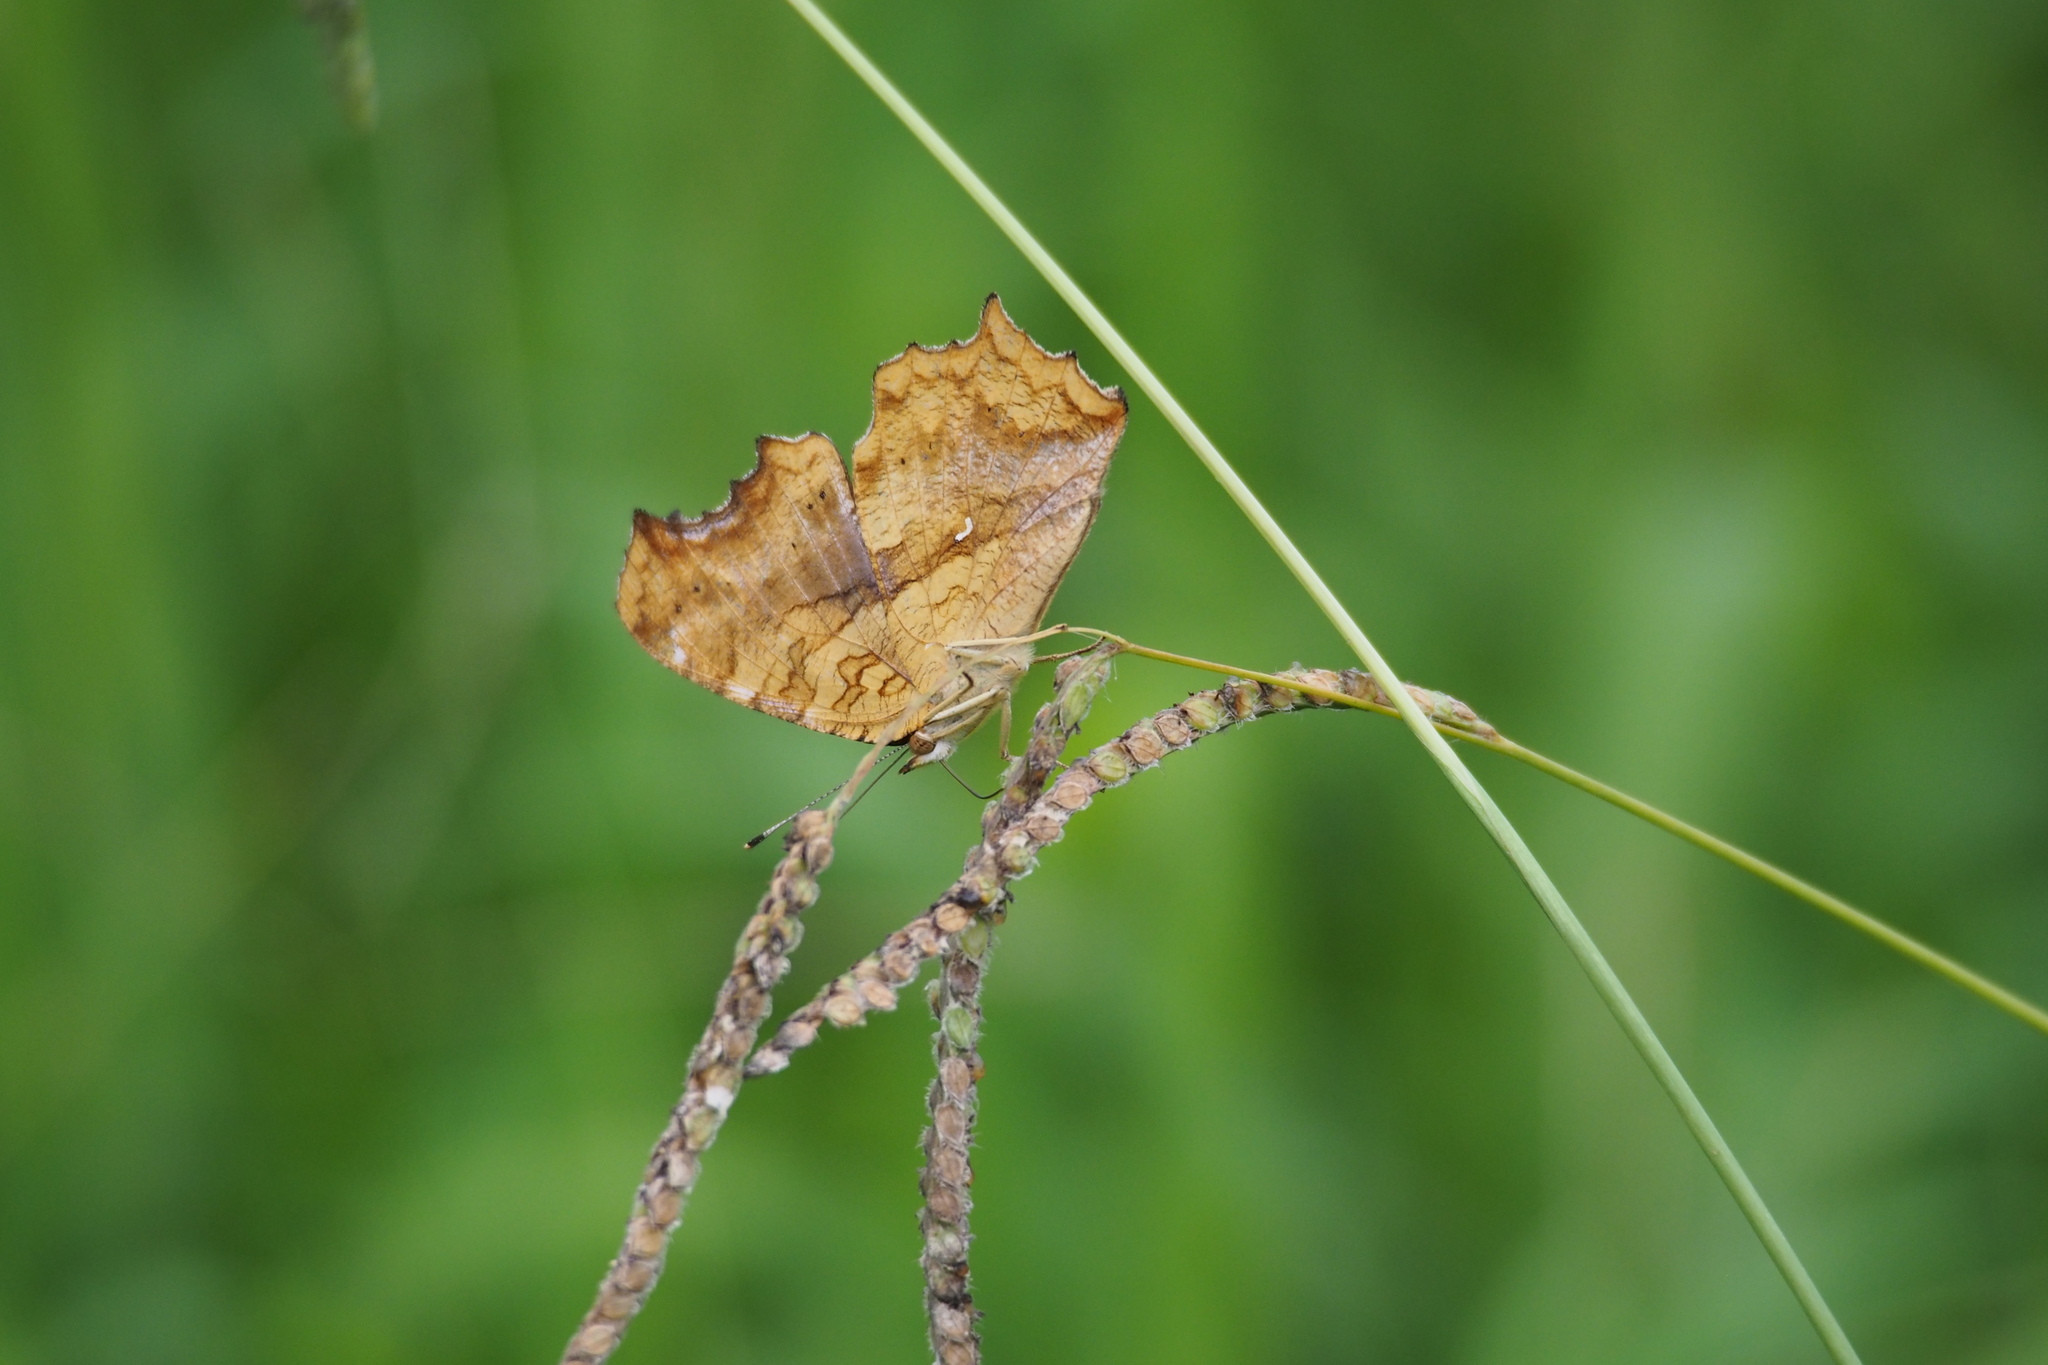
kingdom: Animalia
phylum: Arthropoda
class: Insecta
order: Lepidoptera
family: Nymphalidae
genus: Polygonia
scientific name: Polygonia c-aureum
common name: Asian comma
